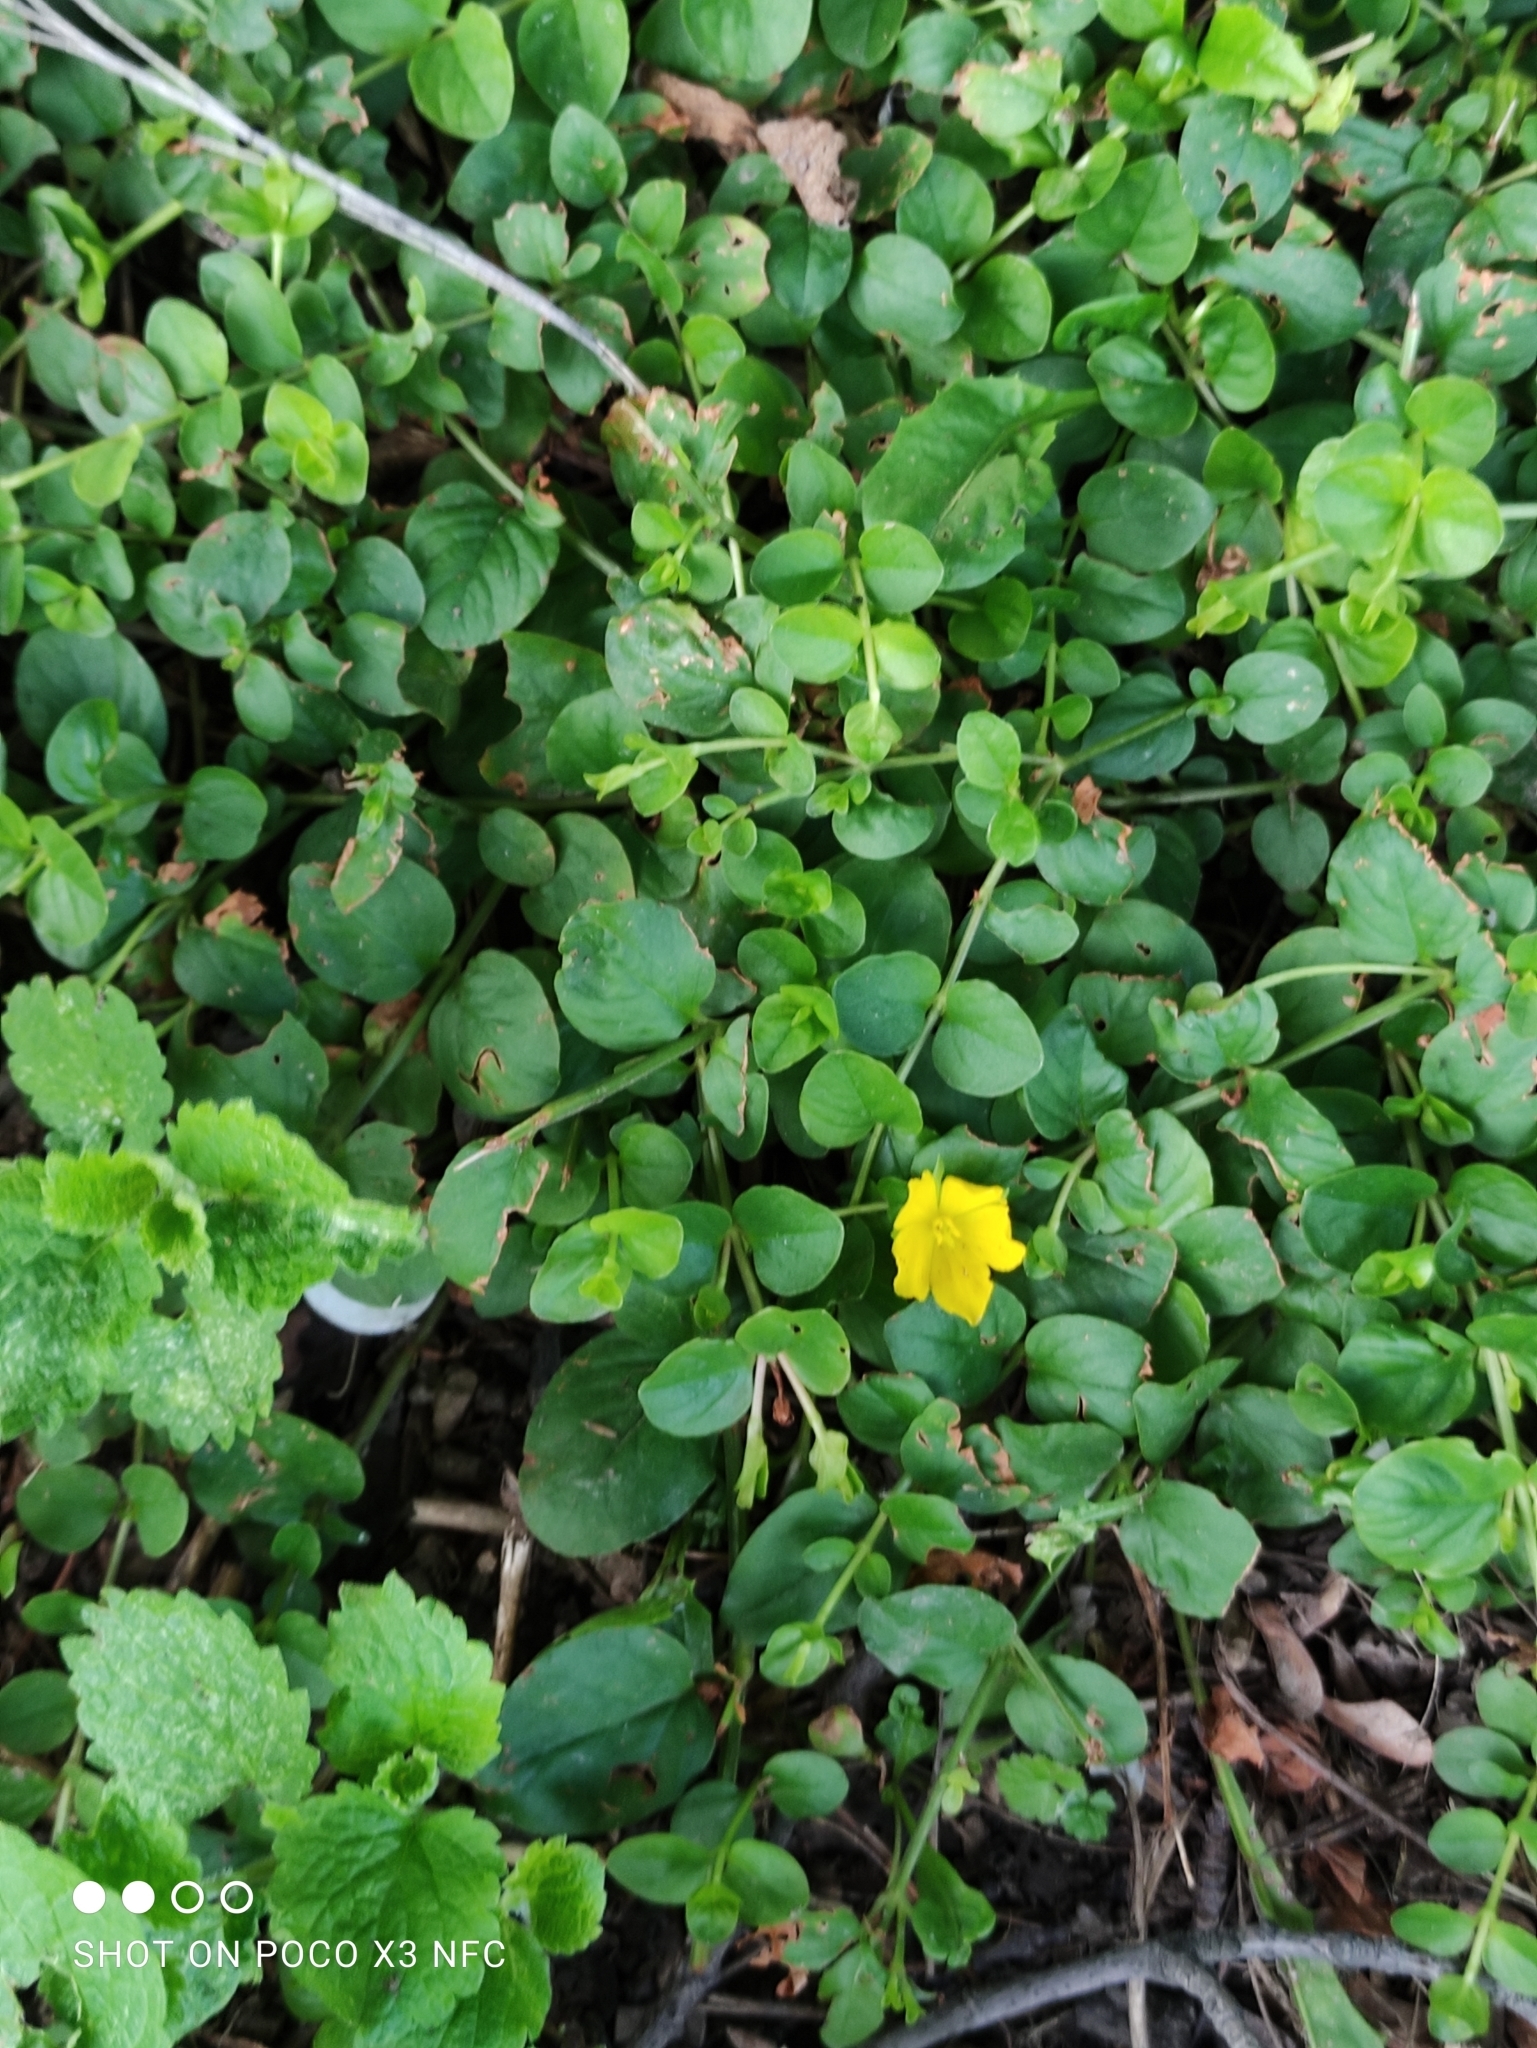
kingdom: Plantae
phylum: Tracheophyta
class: Magnoliopsida
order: Ericales
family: Primulaceae
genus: Lysimachia
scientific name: Lysimachia nummularia
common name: Moneywort
